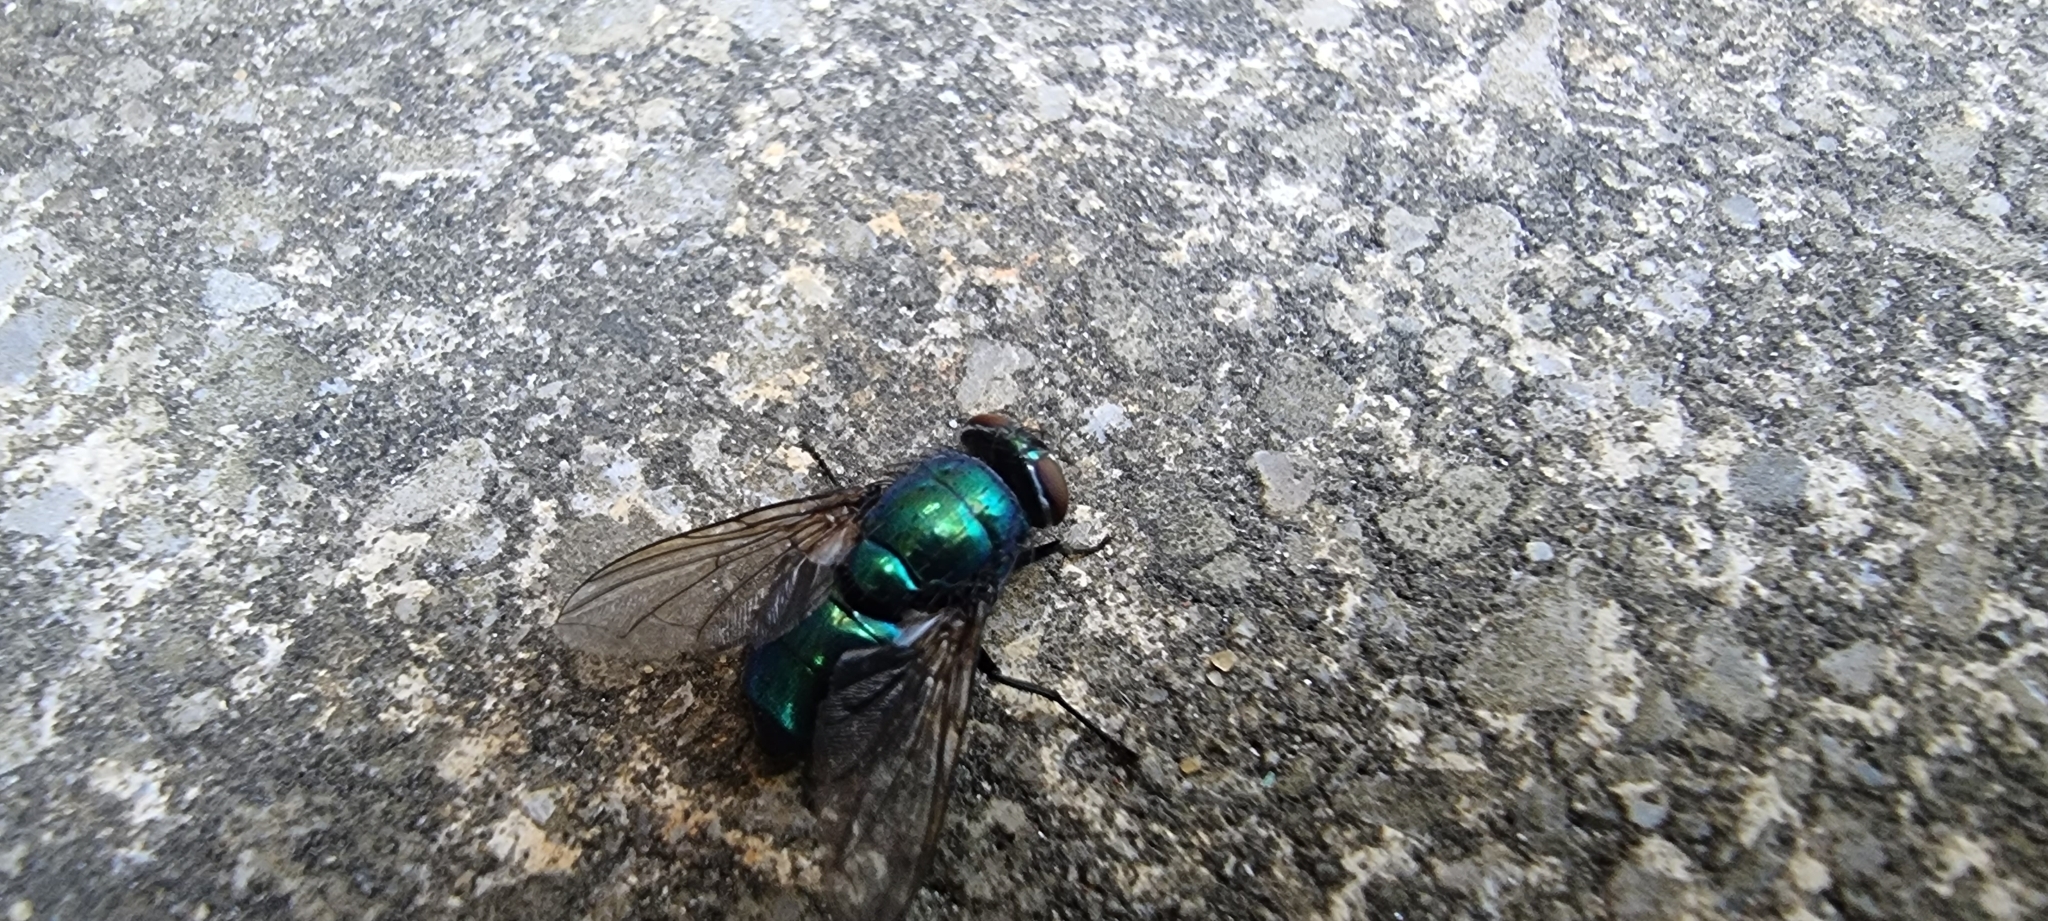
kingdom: Animalia
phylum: Arthropoda
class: Insecta
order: Diptera
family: Calliphoridae
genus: Lucilia
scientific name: Lucilia
